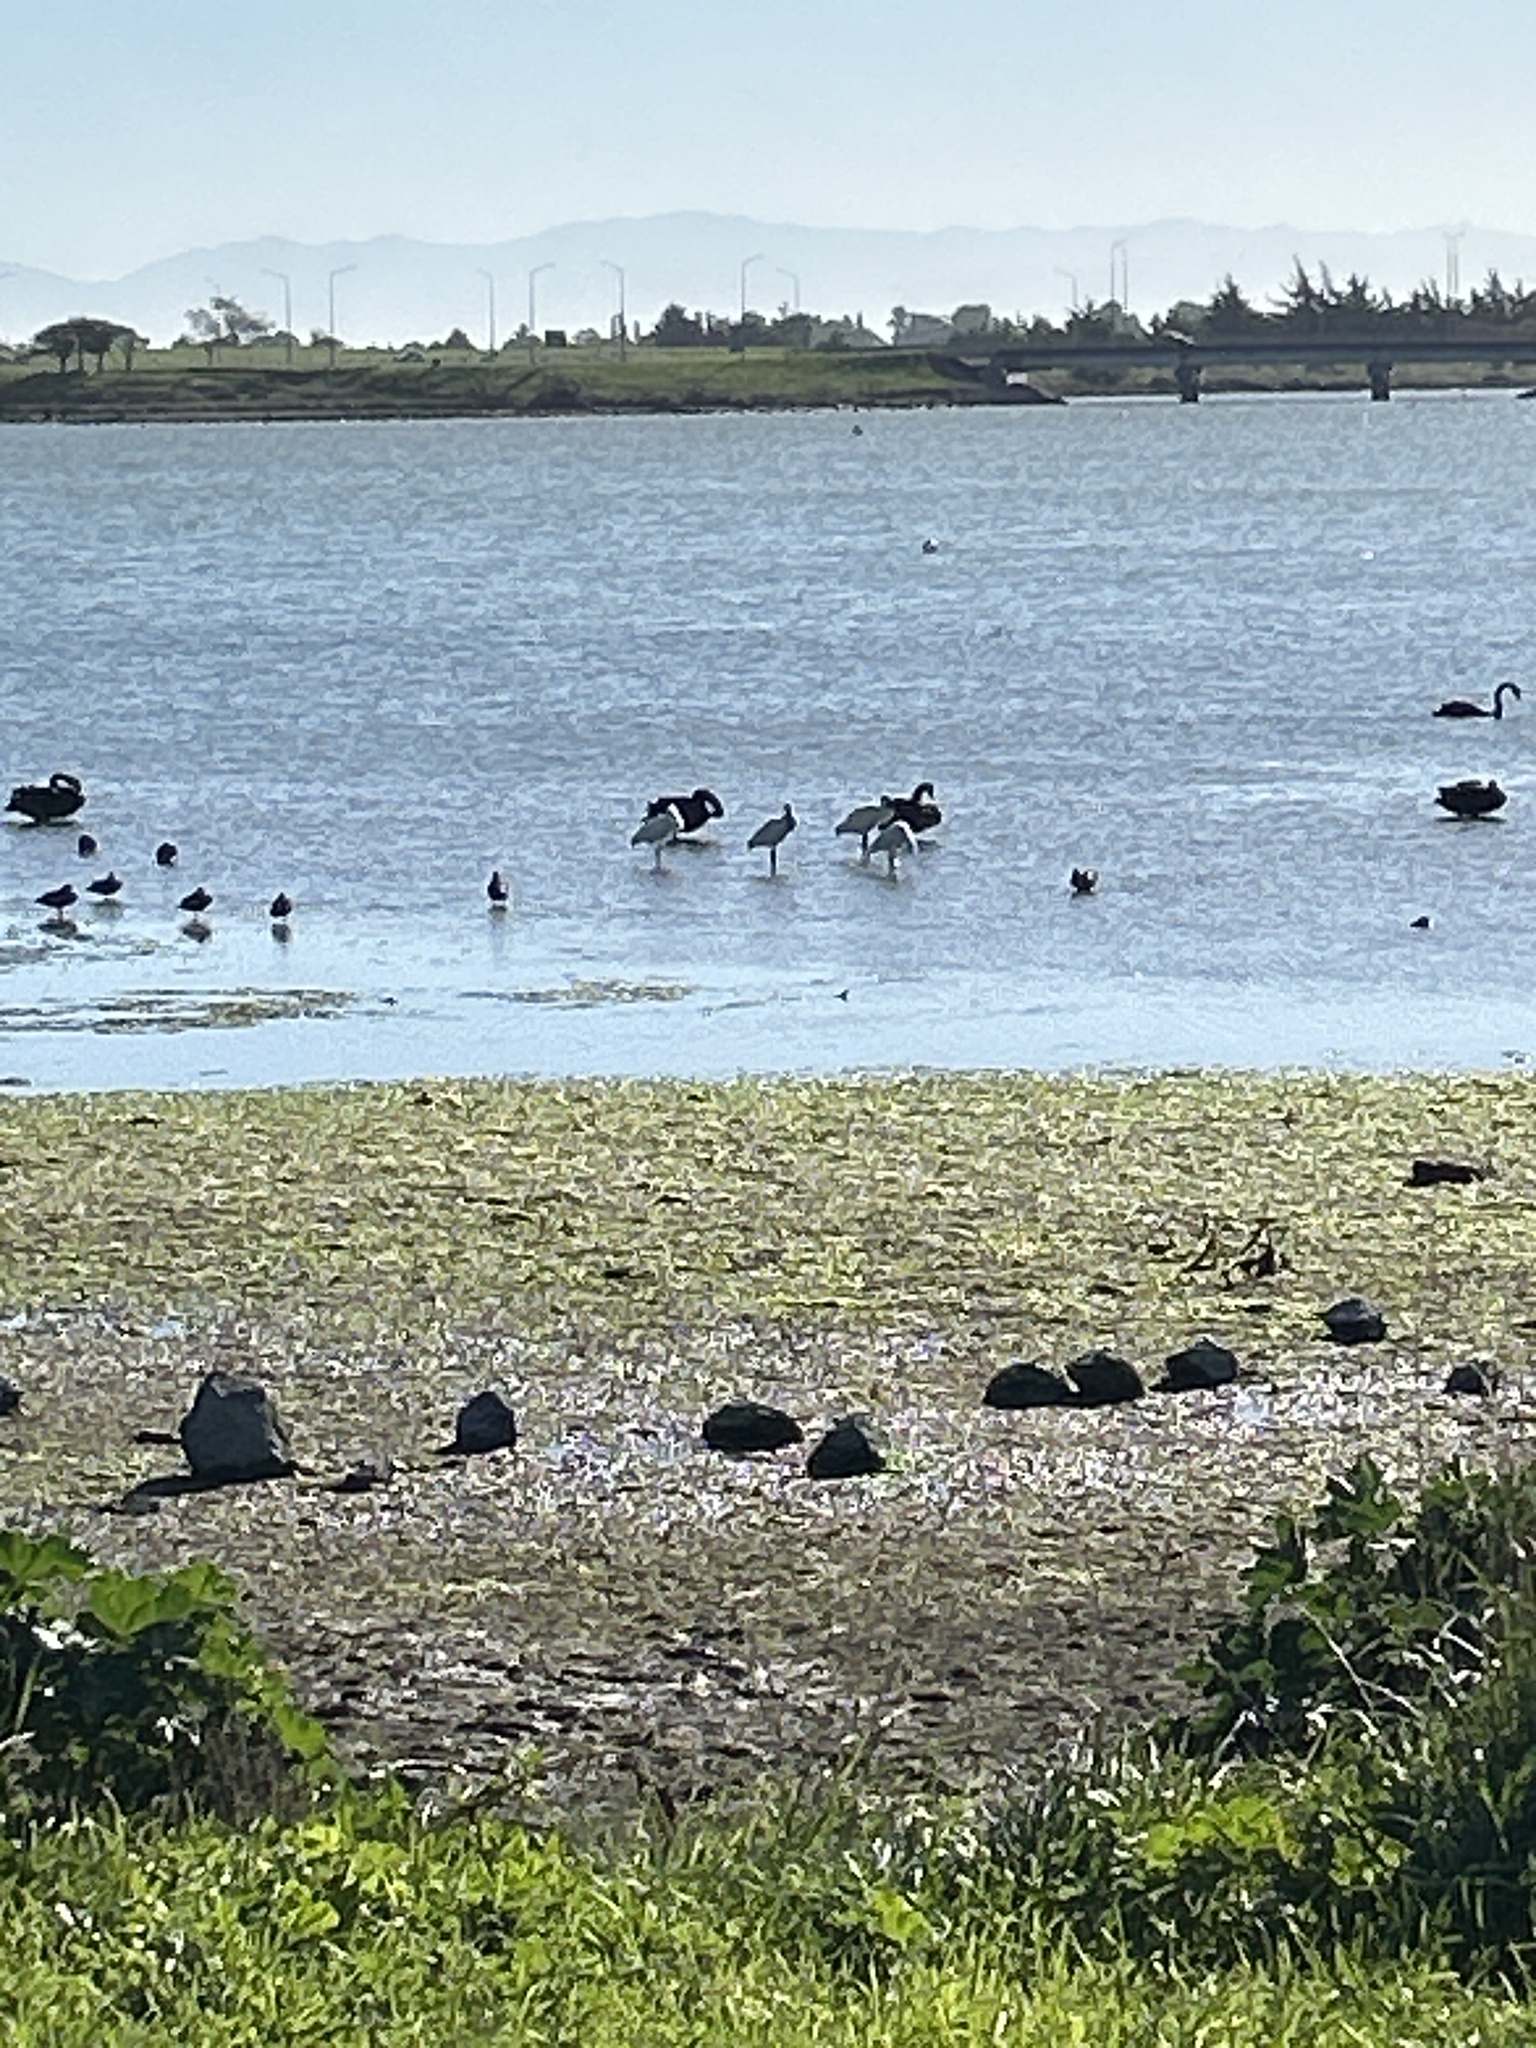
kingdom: Animalia
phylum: Chordata
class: Aves
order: Pelecaniformes
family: Threskiornithidae
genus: Platalea
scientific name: Platalea regia
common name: Royal spoonbill
